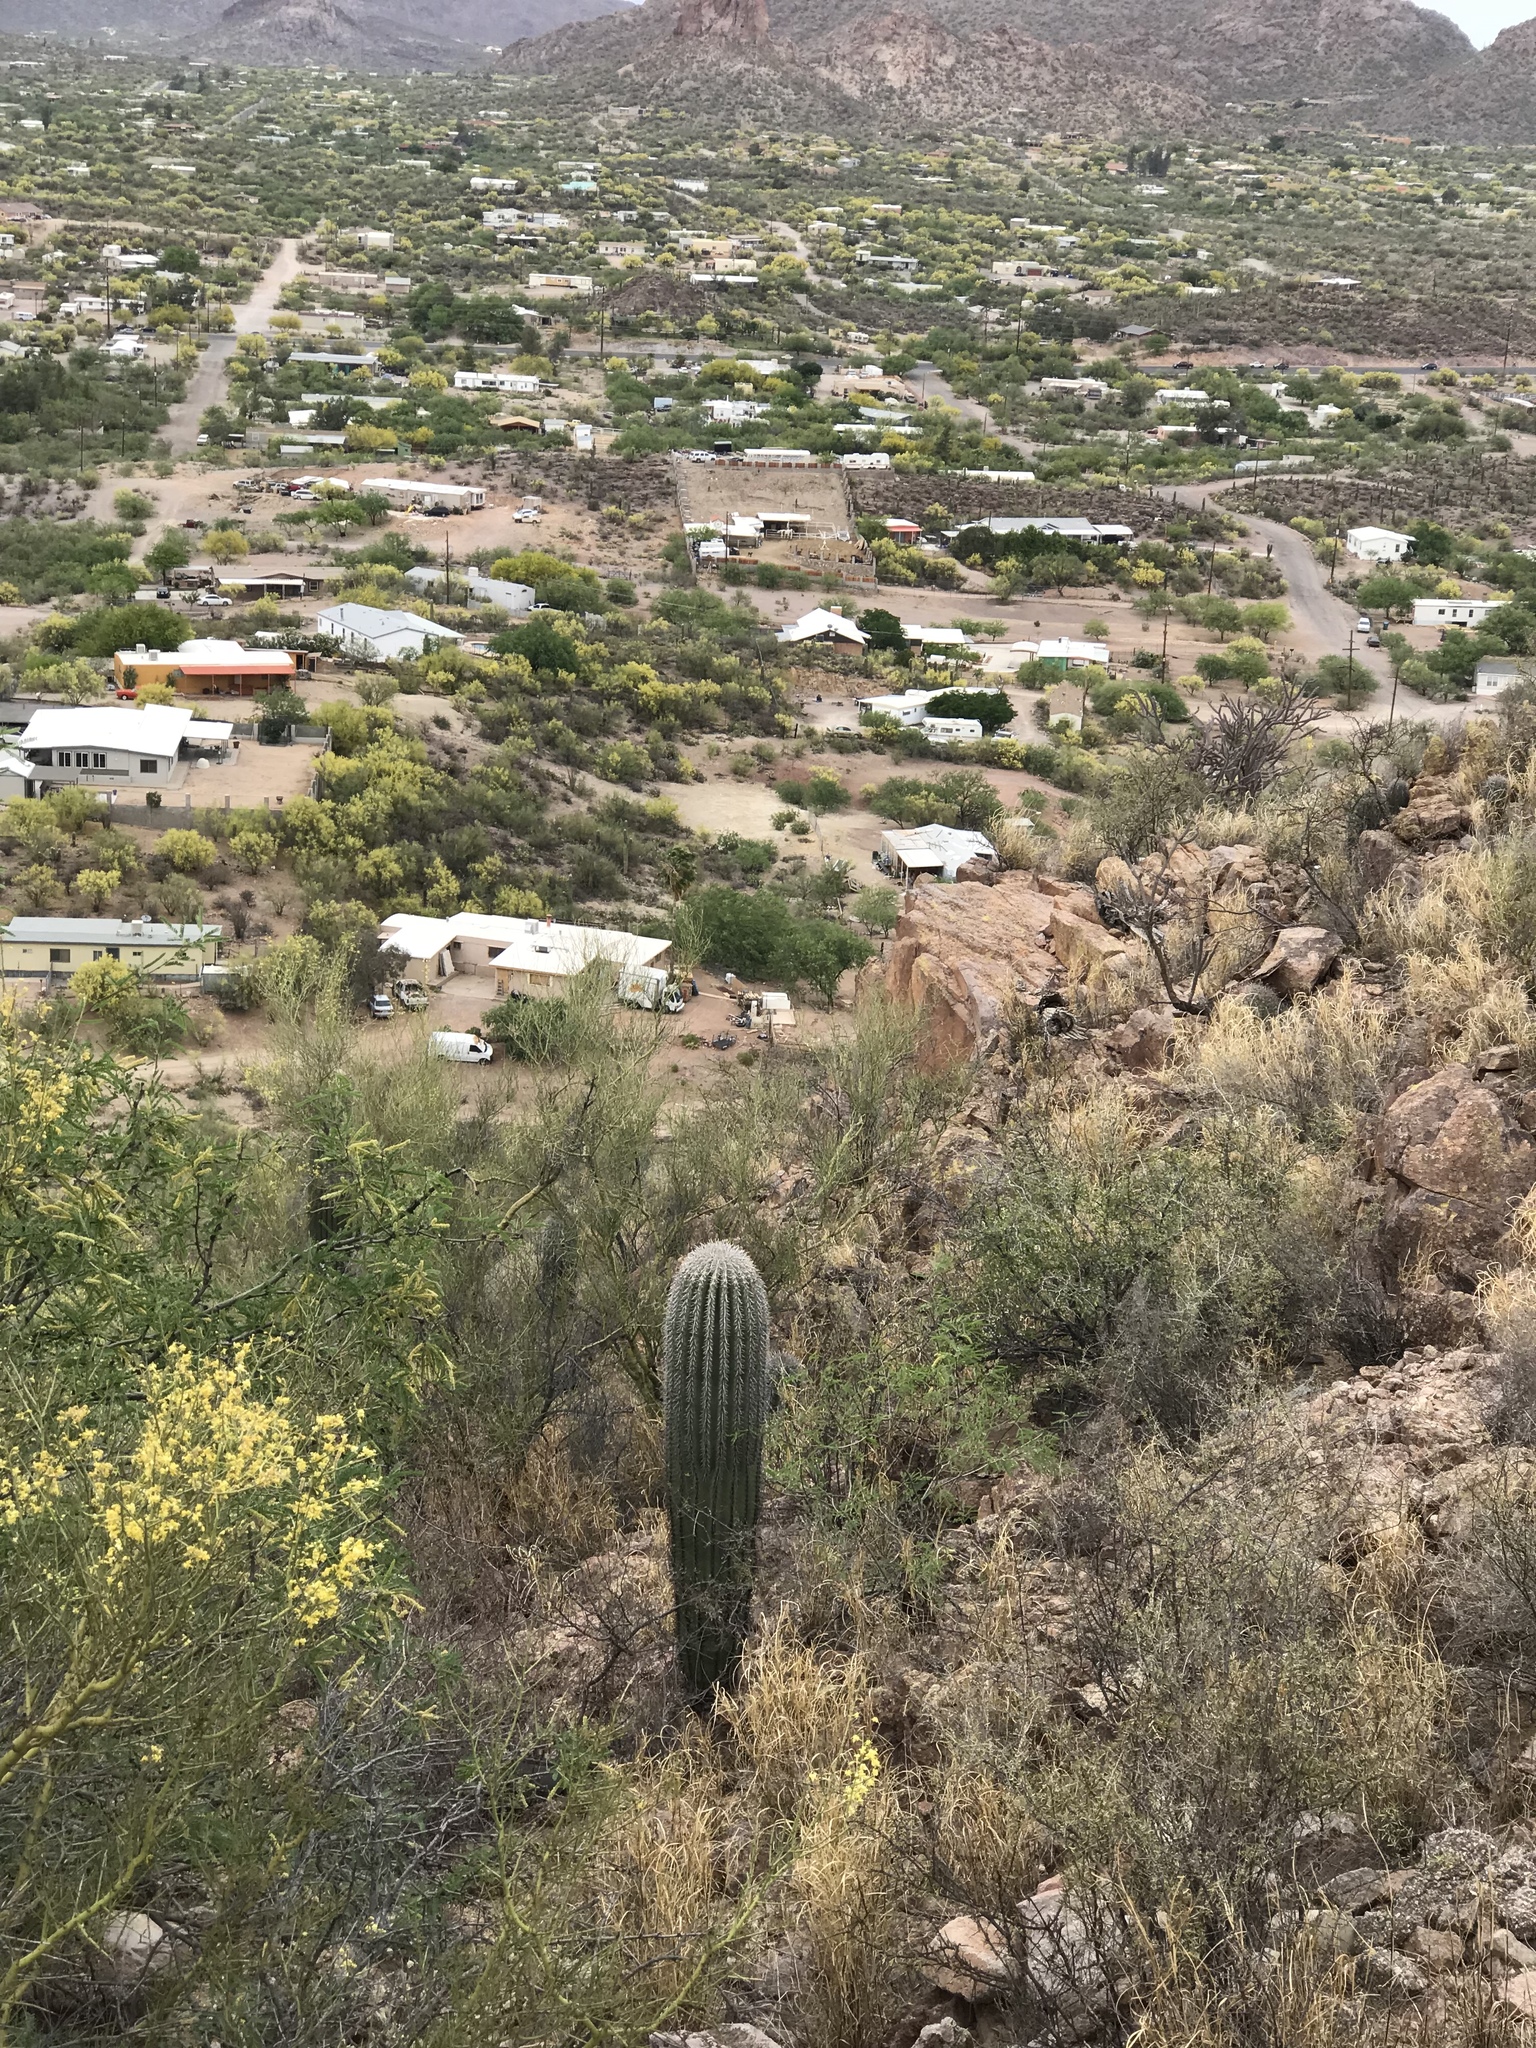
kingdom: Plantae
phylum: Tracheophyta
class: Magnoliopsida
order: Caryophyllales
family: Cactaceae
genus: Carnegiea
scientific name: Carnegiea gigantea
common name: Saguaro
